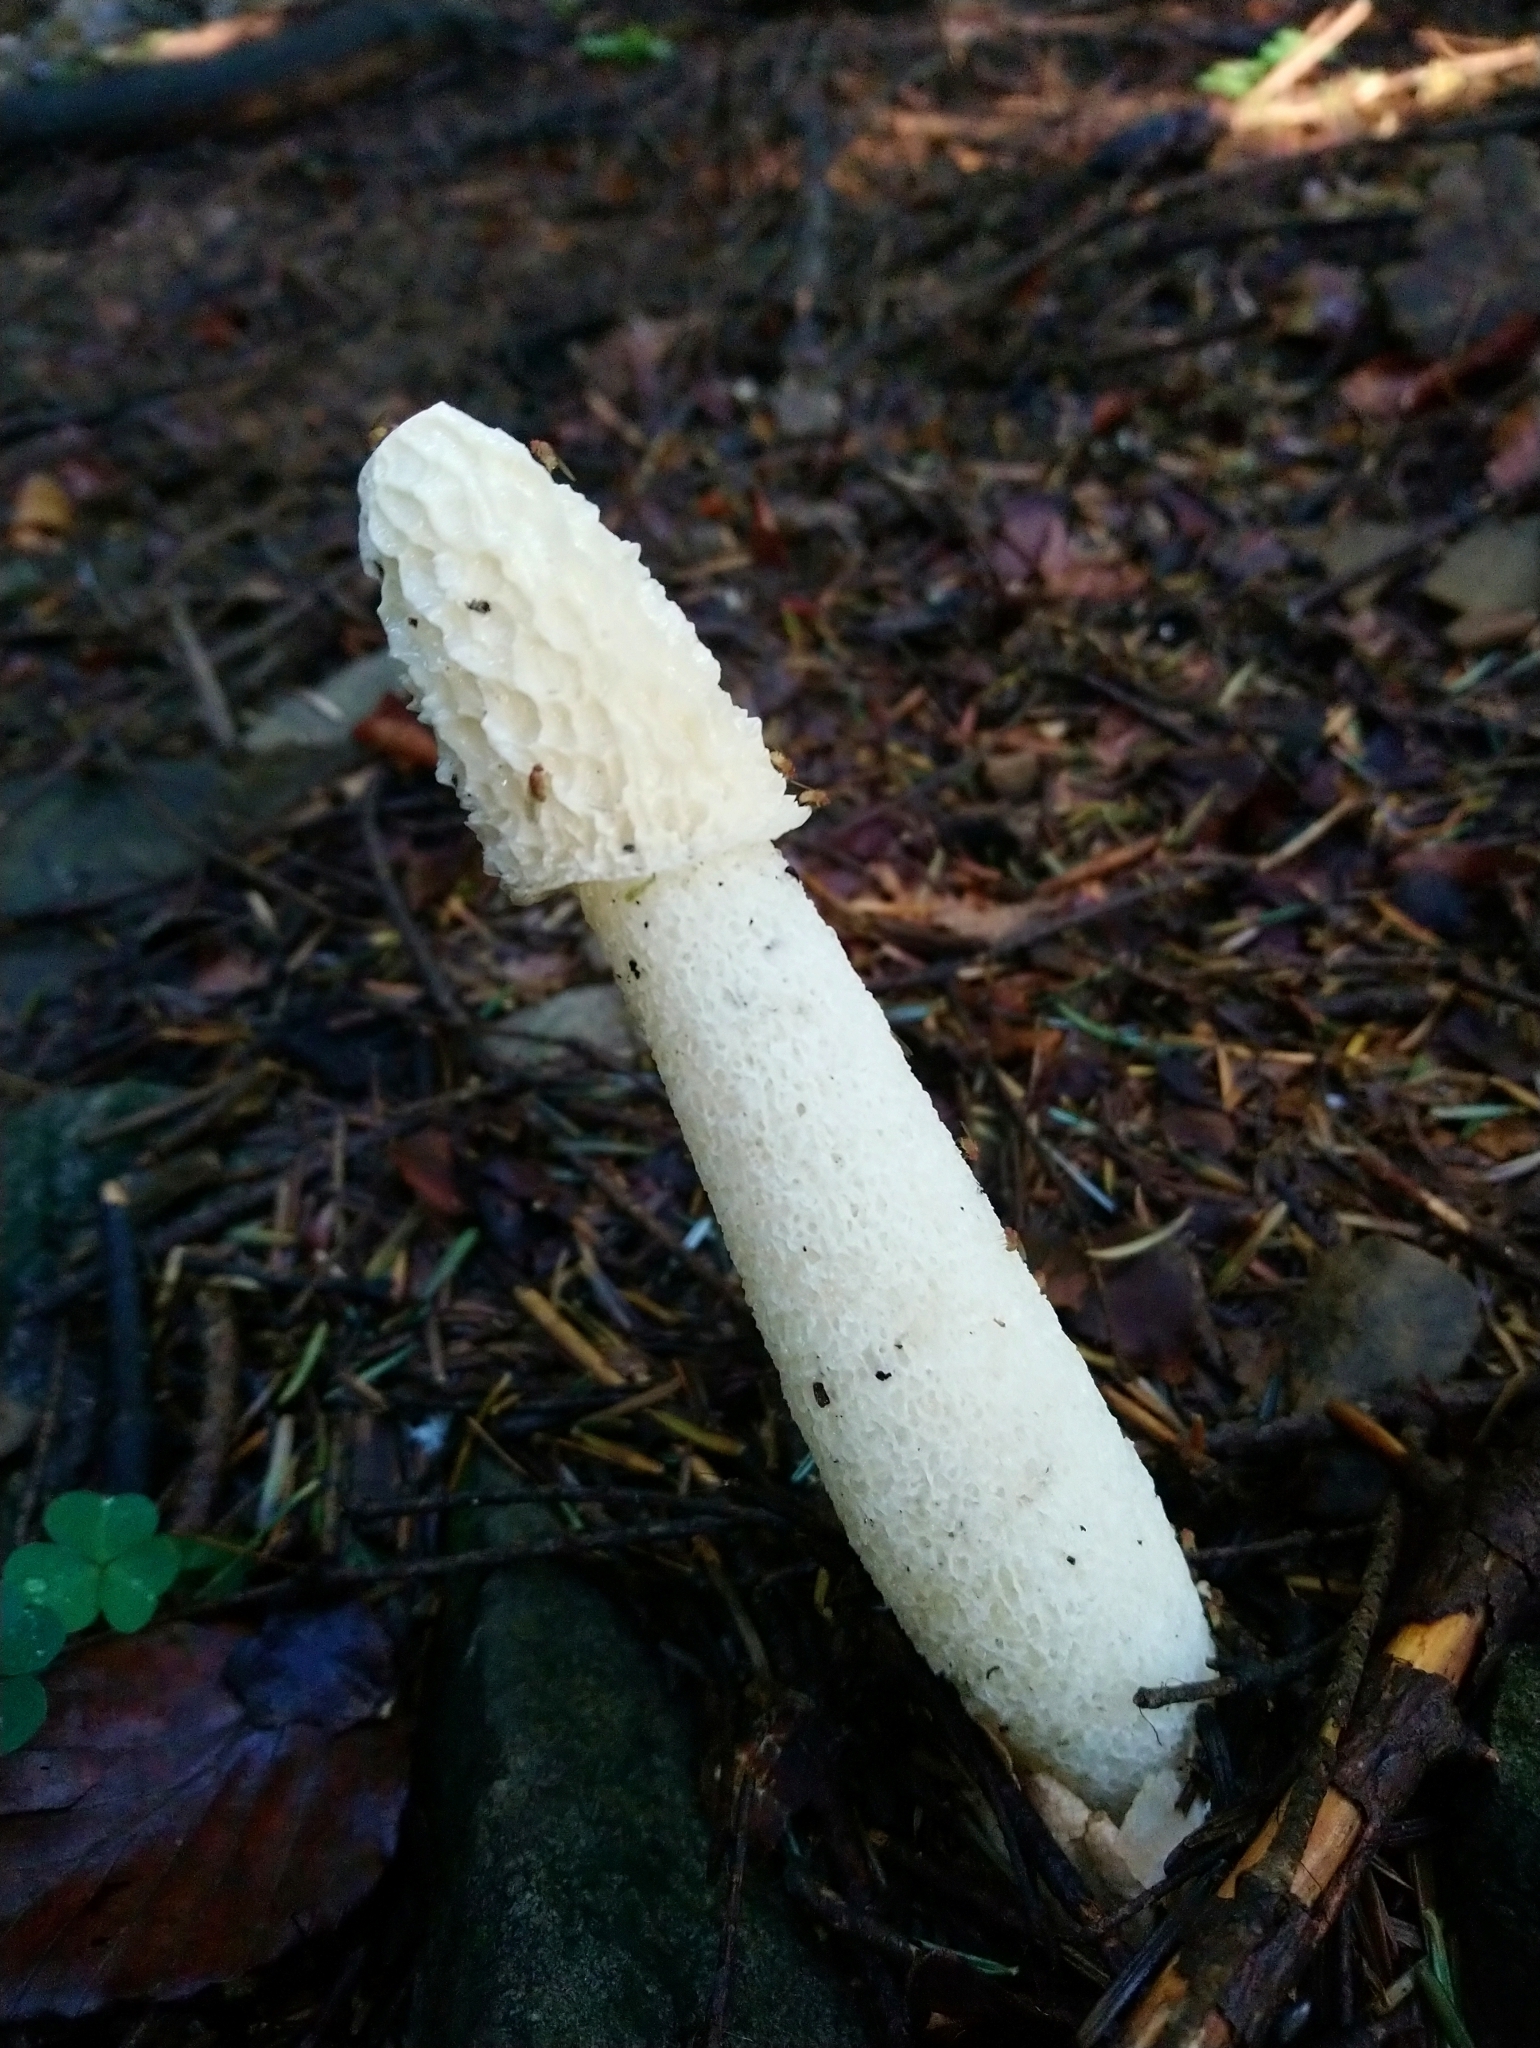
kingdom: Fungi
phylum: Basidiomycota
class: Agaricomycetes
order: Phallales
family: Phallaceae
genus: Phallus
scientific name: Phallus impudicus
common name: Common stinkhorn
